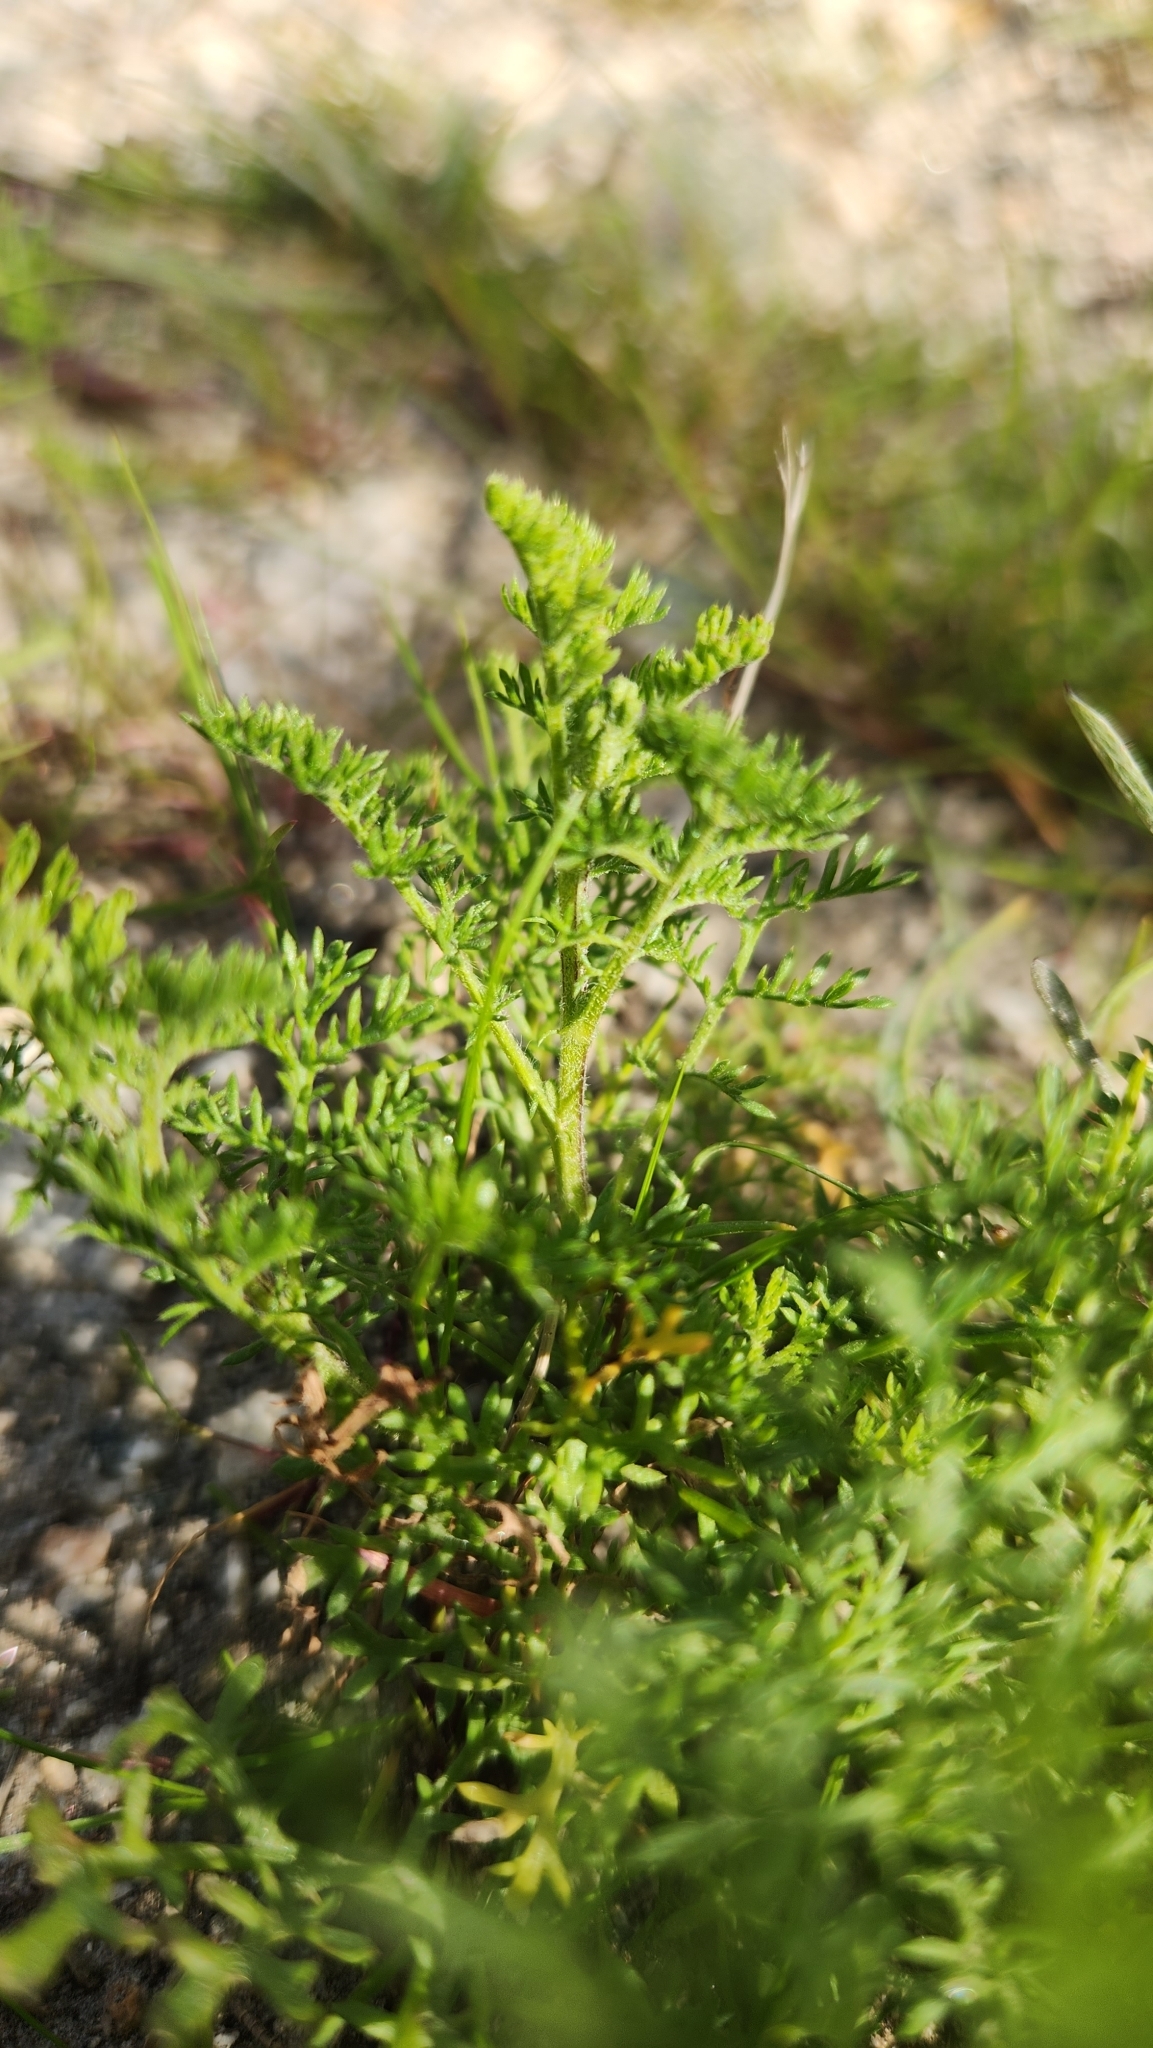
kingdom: Plantae
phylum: Tracheophyta
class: Magnoliopsida
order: Asterales
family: Asteraceae
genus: Oncosiphon
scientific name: Oncosiphon pilulifer
